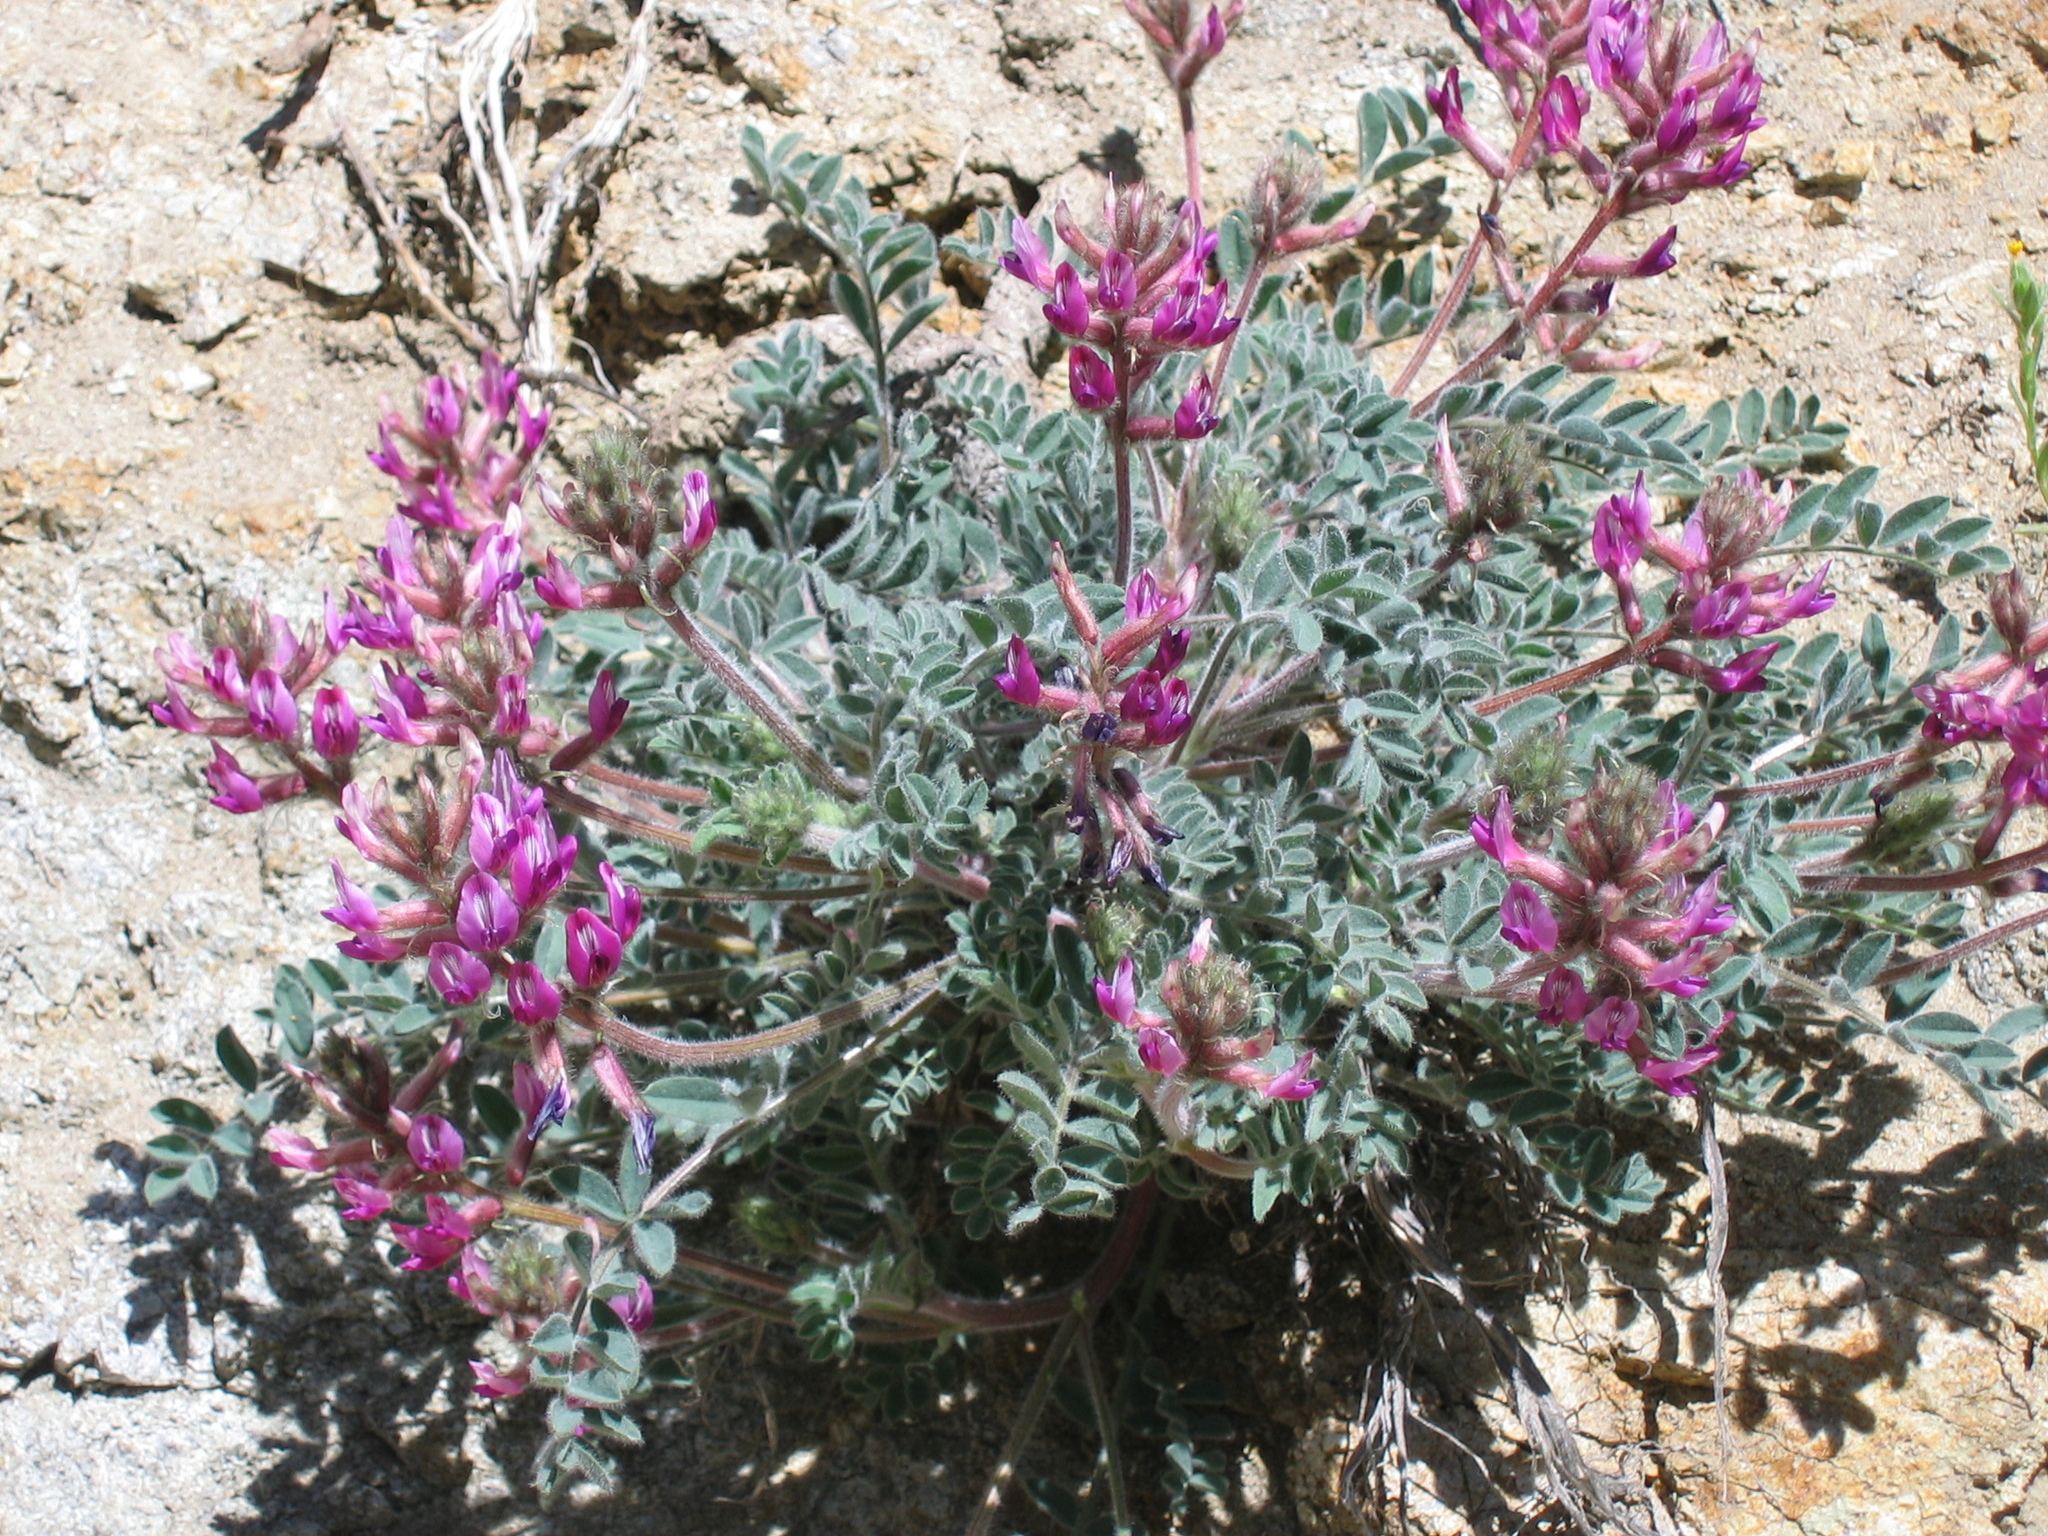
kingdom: Plantae
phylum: Tracheophyta
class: Magnoliopsida
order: Fabales
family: Fabaceae
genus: Astragalus
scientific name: Astragalus malacus
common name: Shaggy milk-vetch
